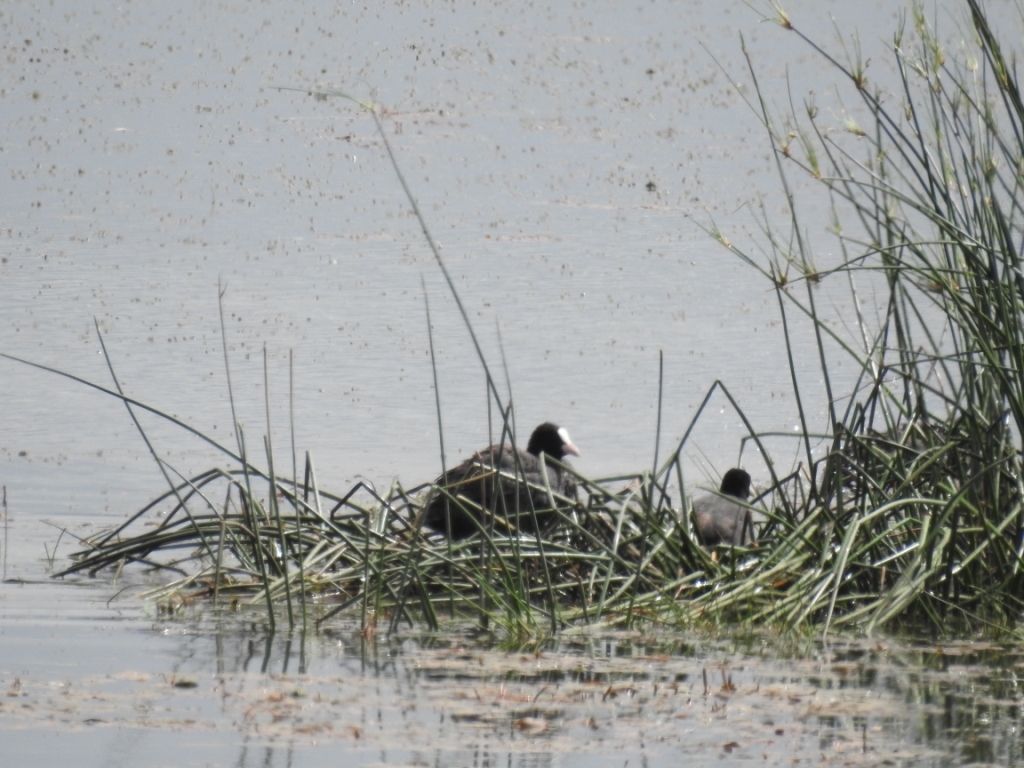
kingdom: Animalia
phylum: Chordata
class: Aves
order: Gruiformes
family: Rallidae
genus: Fulica
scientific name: Fulica atra
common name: Eurasian coot
